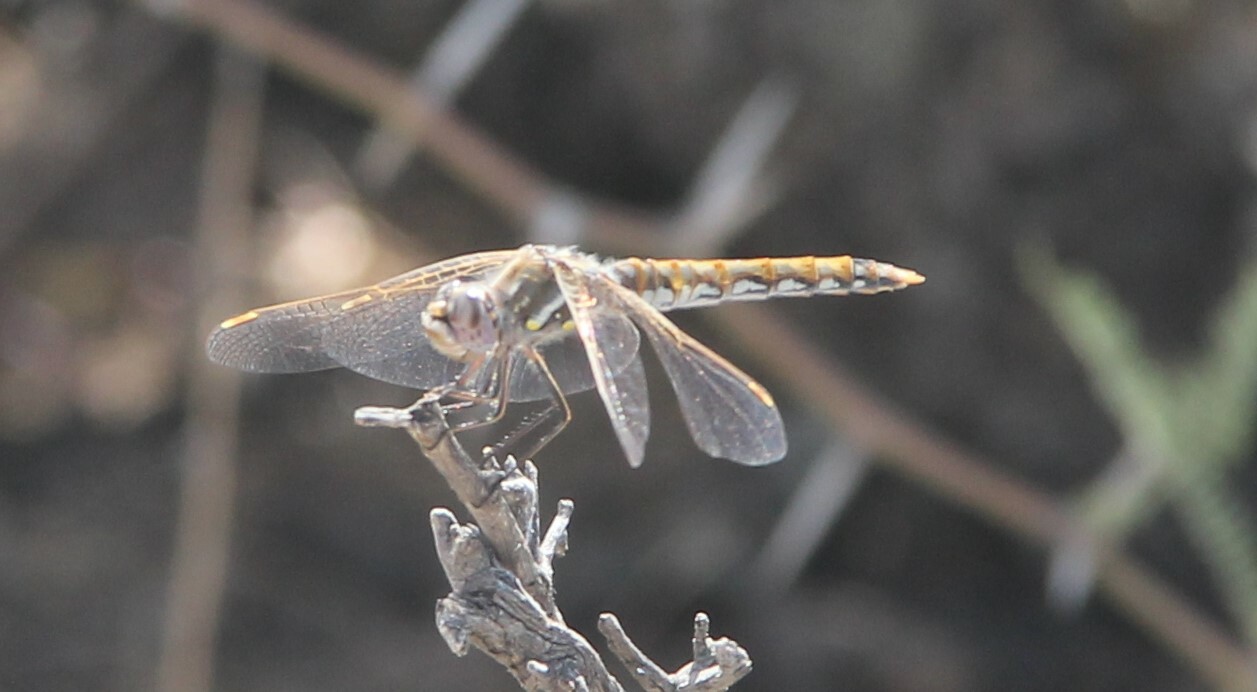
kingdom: Animalia
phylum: Arthropoda
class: Insecta
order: Odonata
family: Libellulidae
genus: Sympetrum
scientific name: Sympetrum corruptum
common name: Variegated meadowhawk
